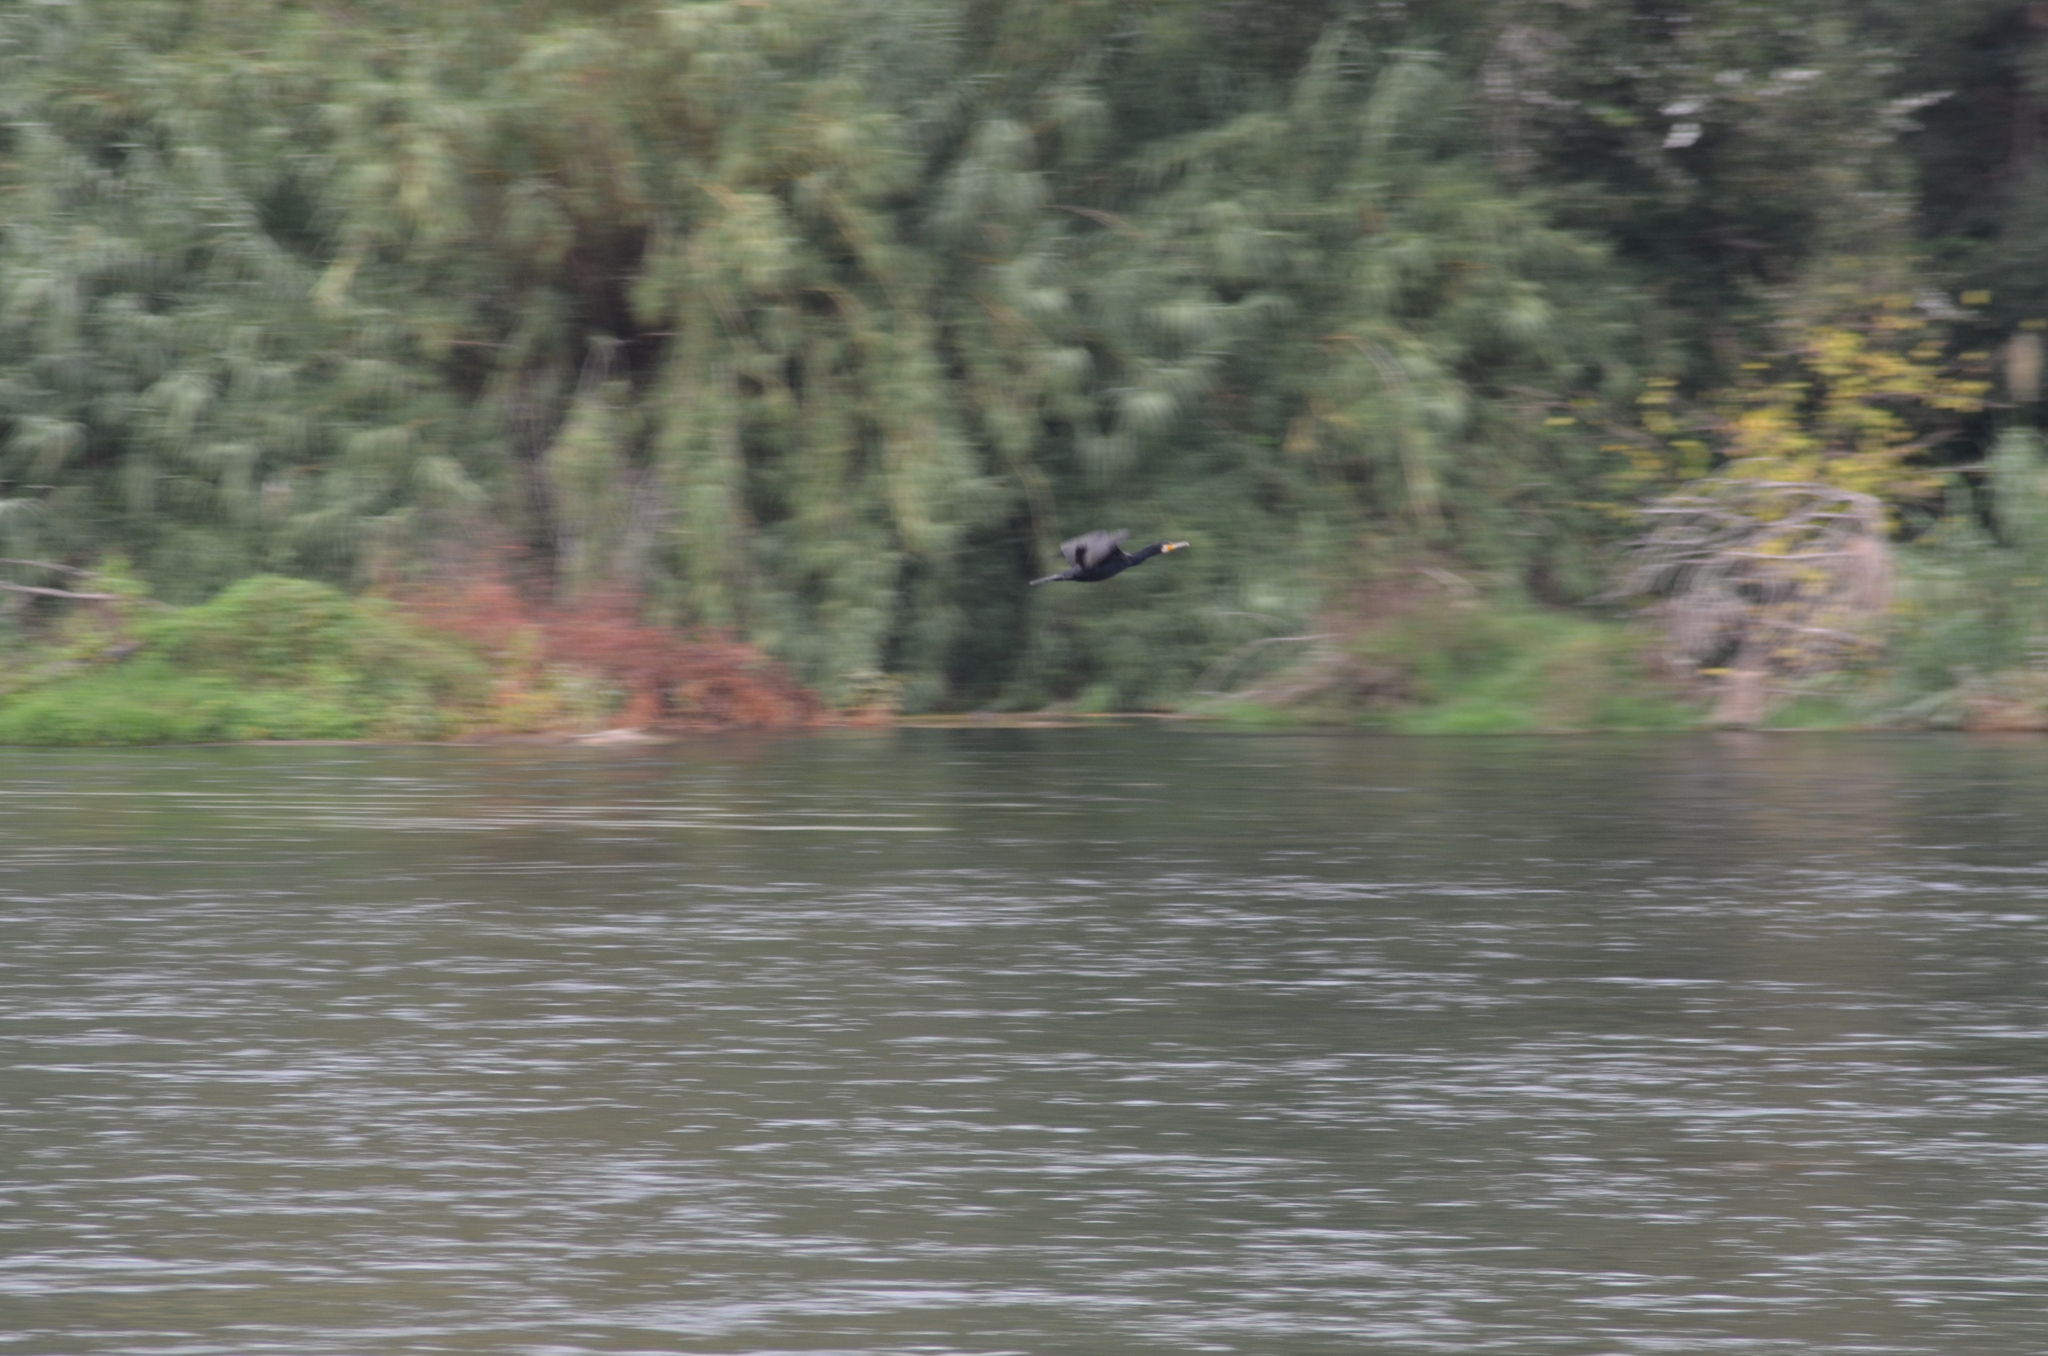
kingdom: Animalia
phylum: Chordata
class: Aves
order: Suliformes
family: Phalacrocoracidae
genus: Phalacrocorax
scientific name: Phalacrocorax carbo
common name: Great cormorant
